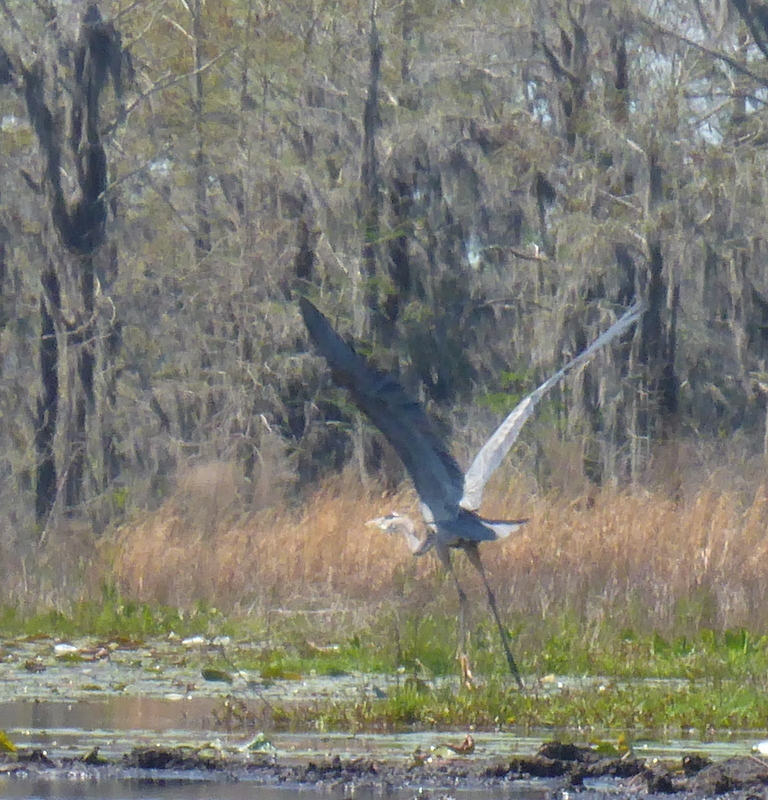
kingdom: Animalia
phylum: Chordata
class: Aves
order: Pelecaniformes
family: Ardeidae
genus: Ardea
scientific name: Ardea herodias
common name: Great blue heron
